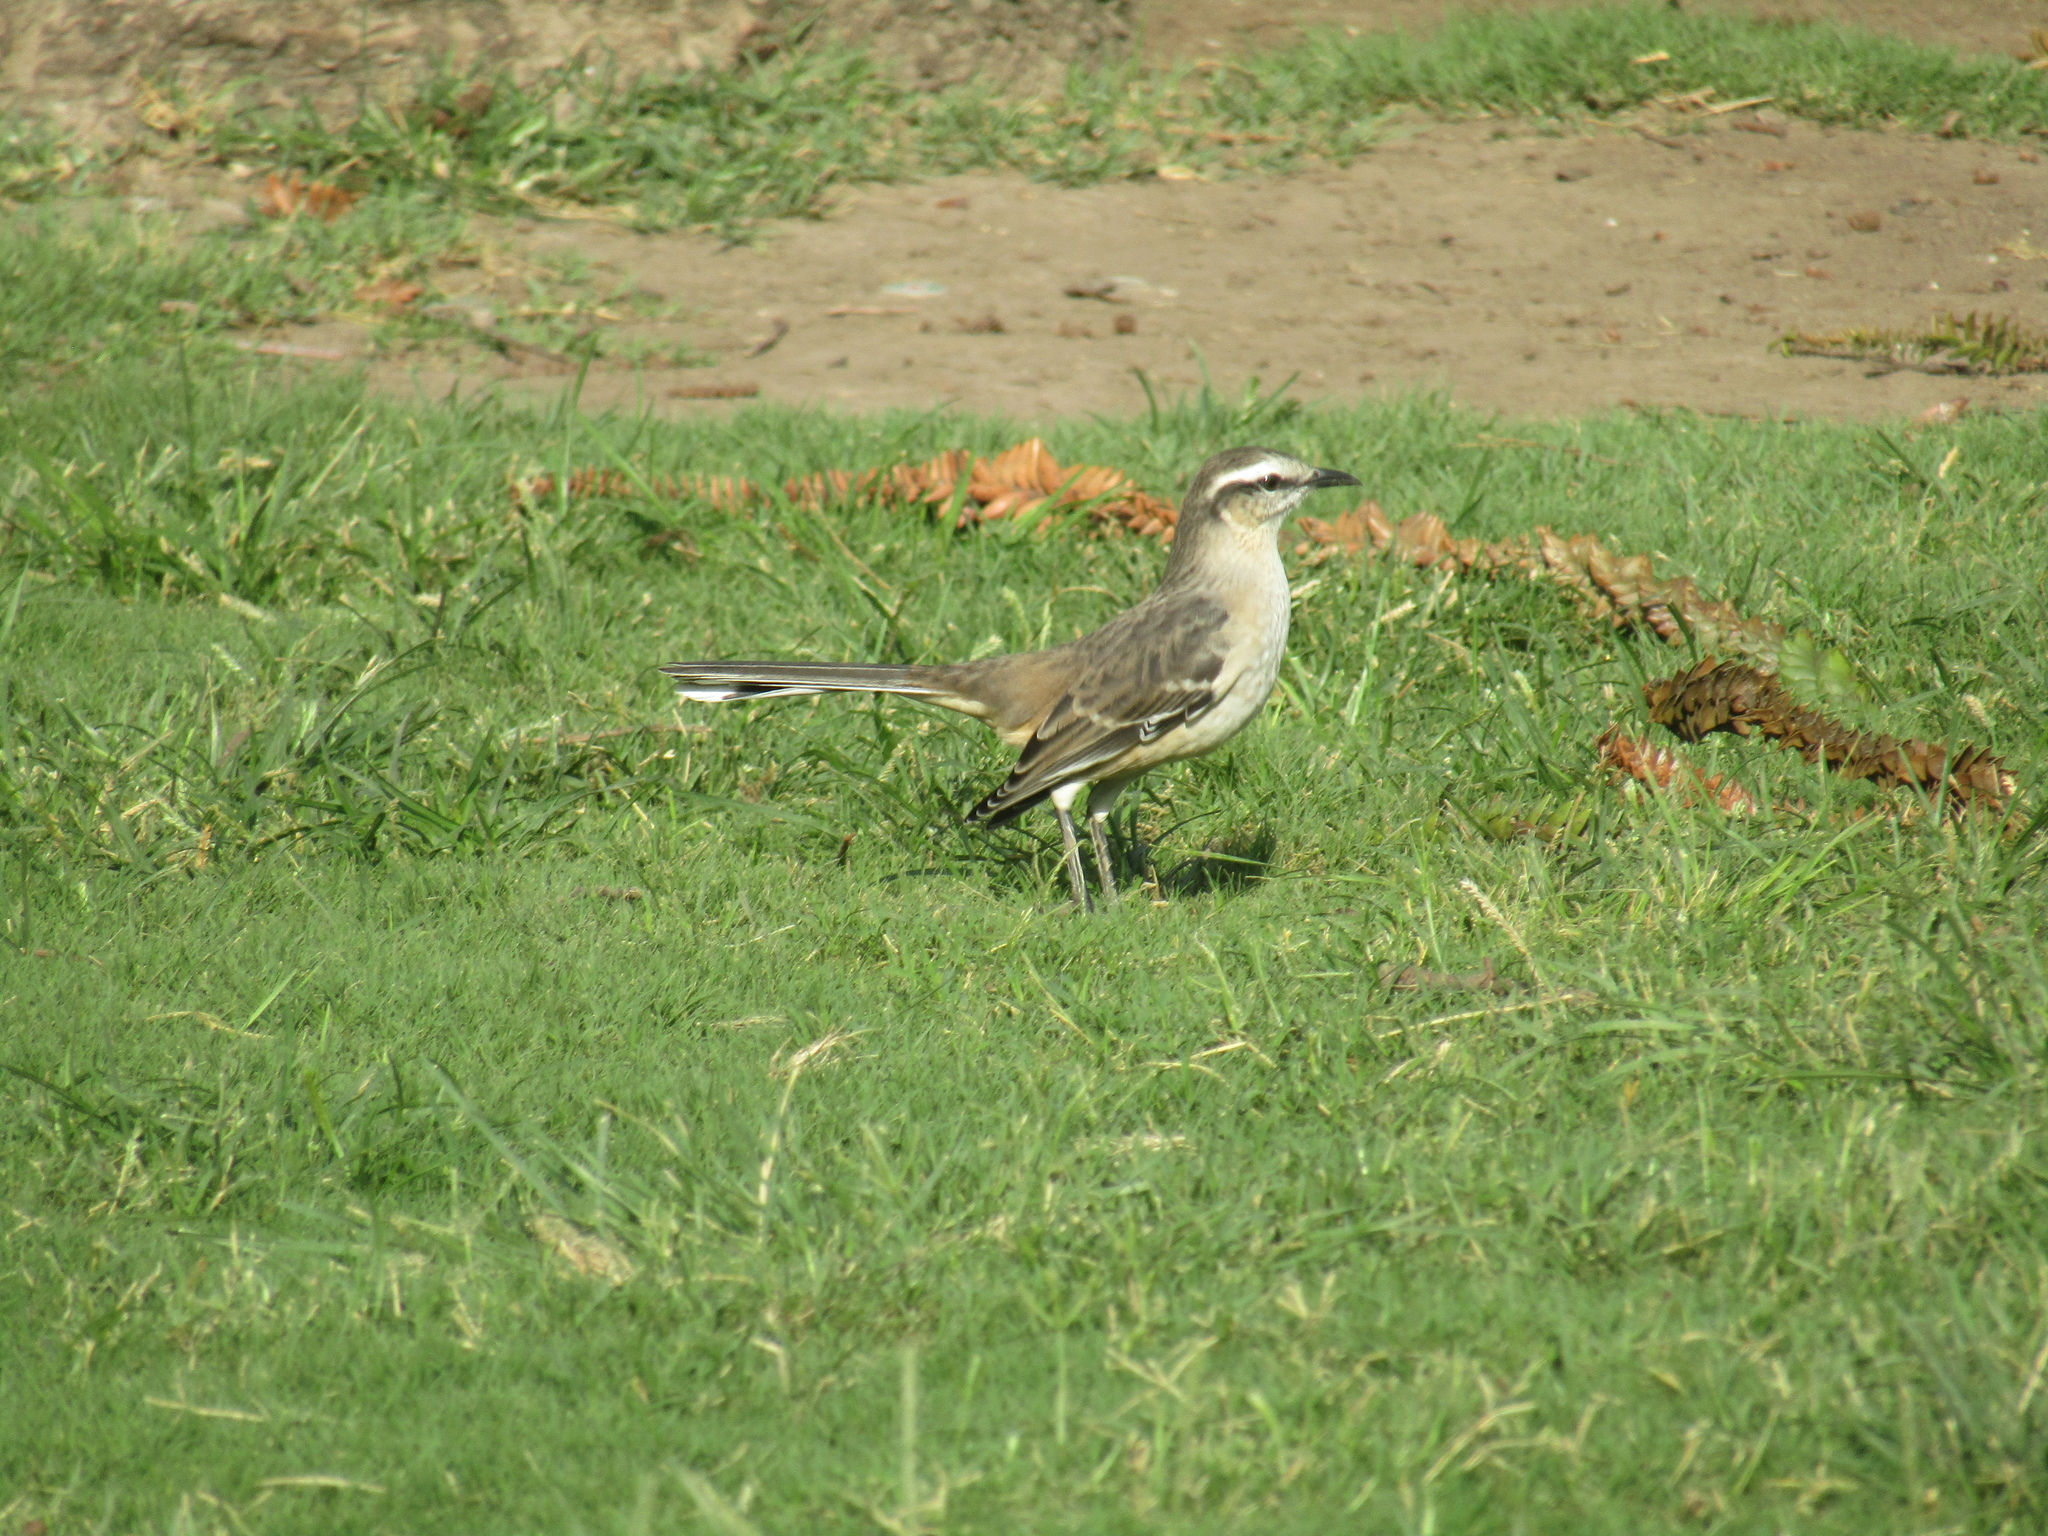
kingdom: Animalia
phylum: Chordata
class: Aves
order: Passeriformes
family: Mimidae
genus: Mimus
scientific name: Mimus saturninus
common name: Chalk-browed mockingbird
